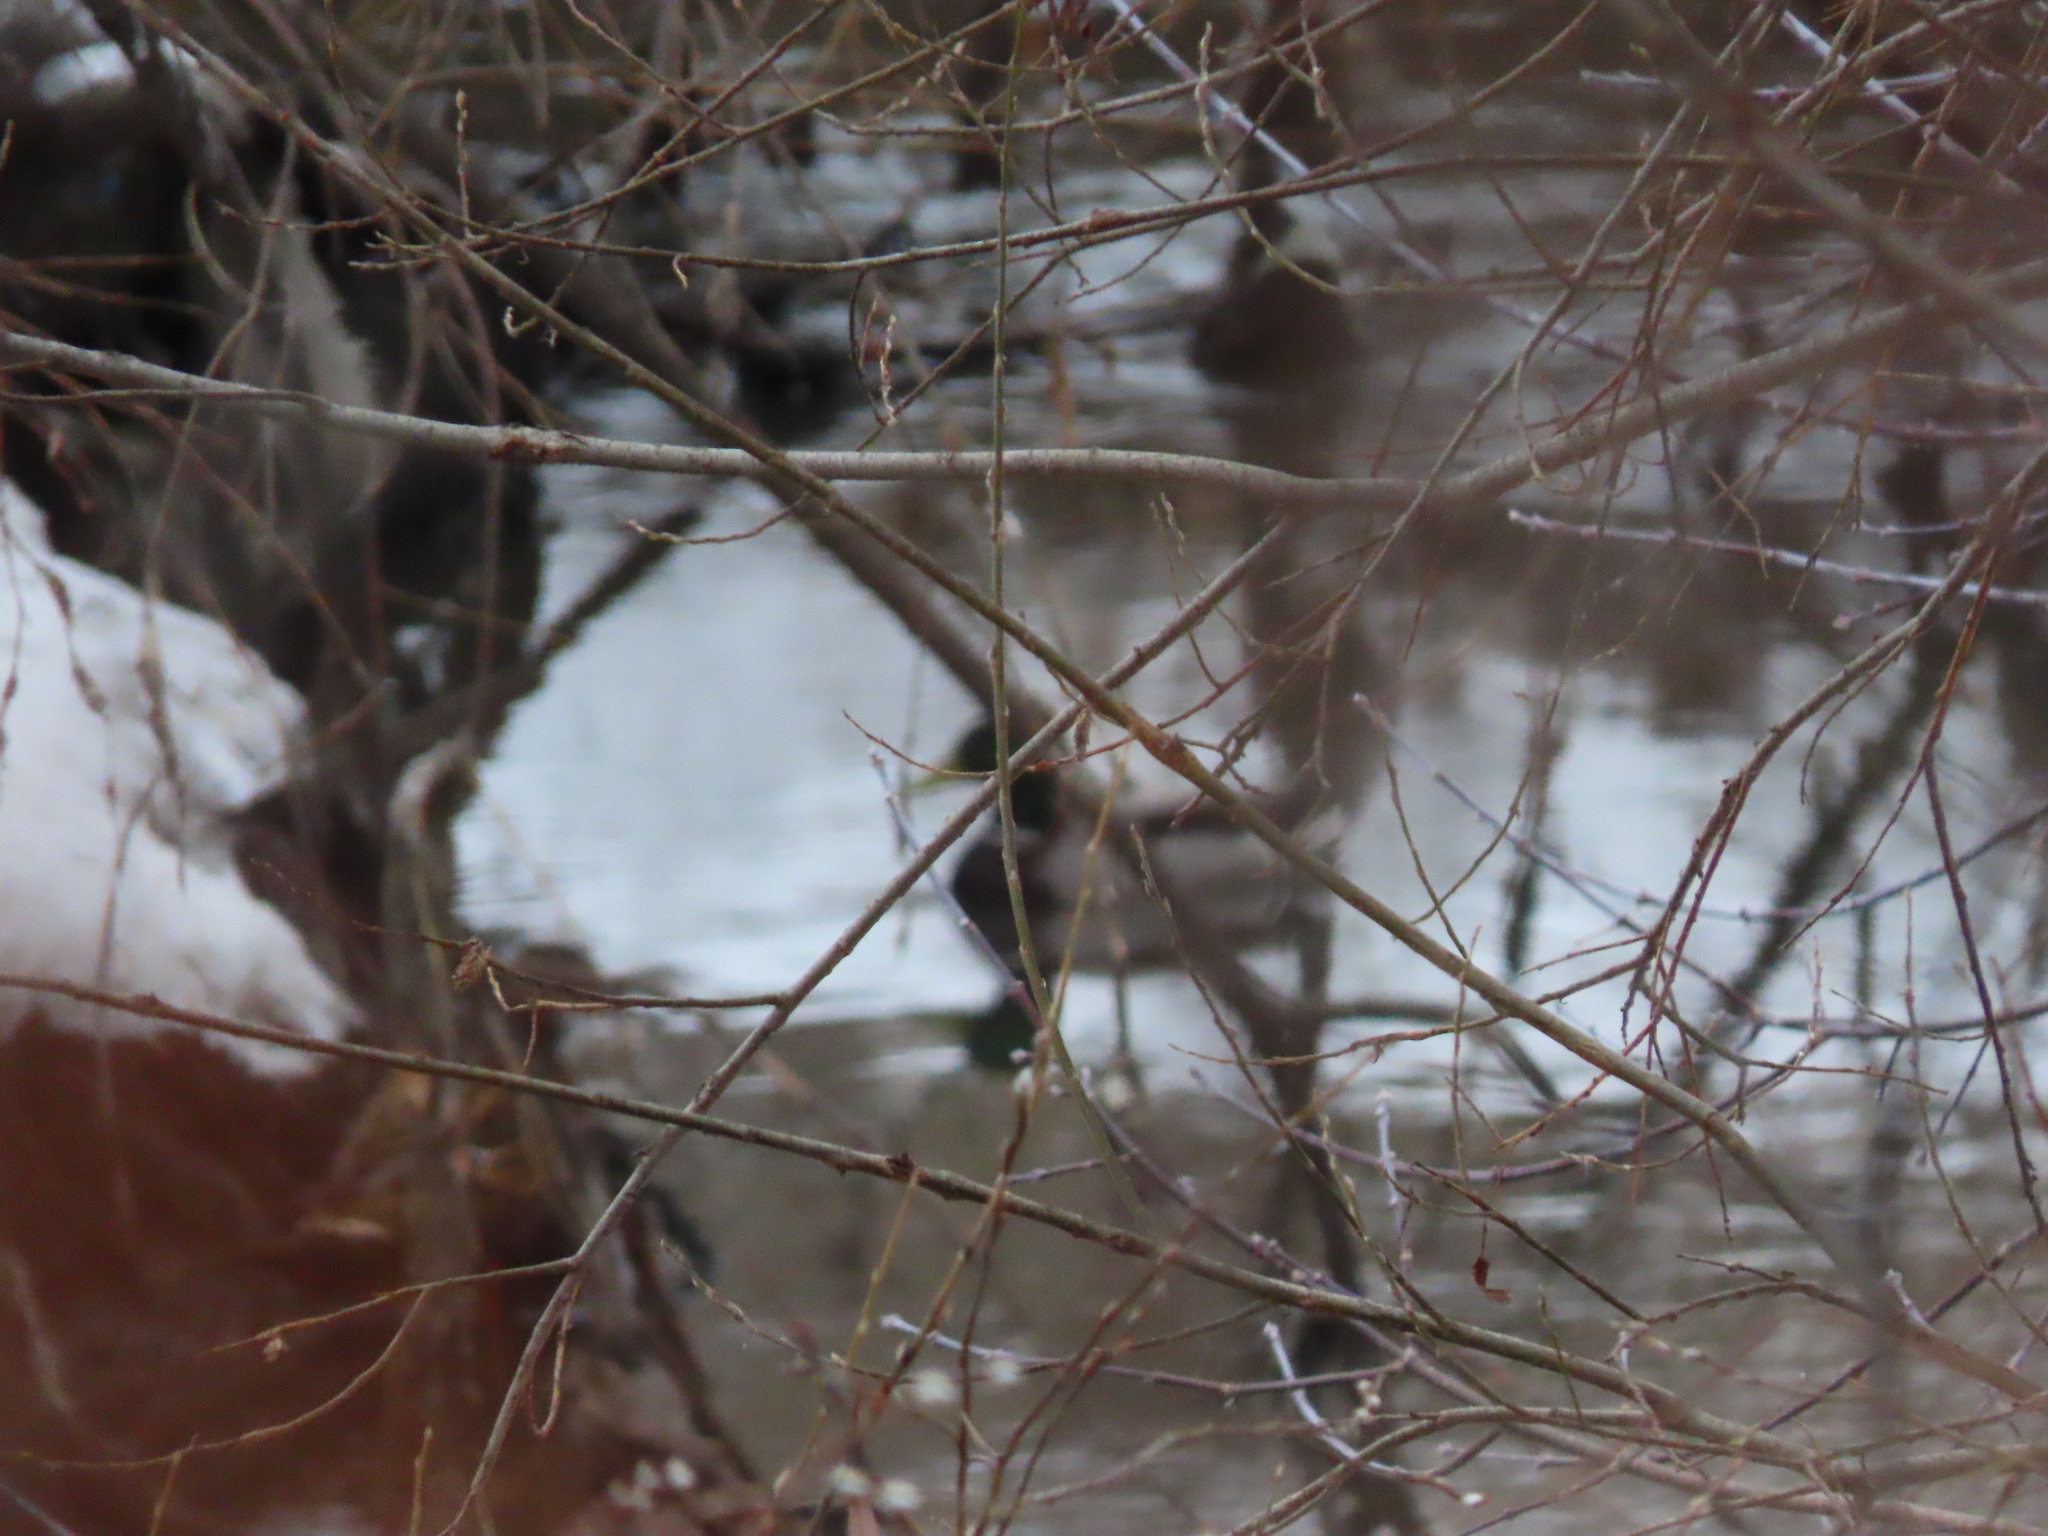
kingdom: Animalia
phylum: Chordata
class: Aves
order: Anseriformes
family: Anatidae
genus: Anas
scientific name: Anas platyrhynchos
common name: Mallard
